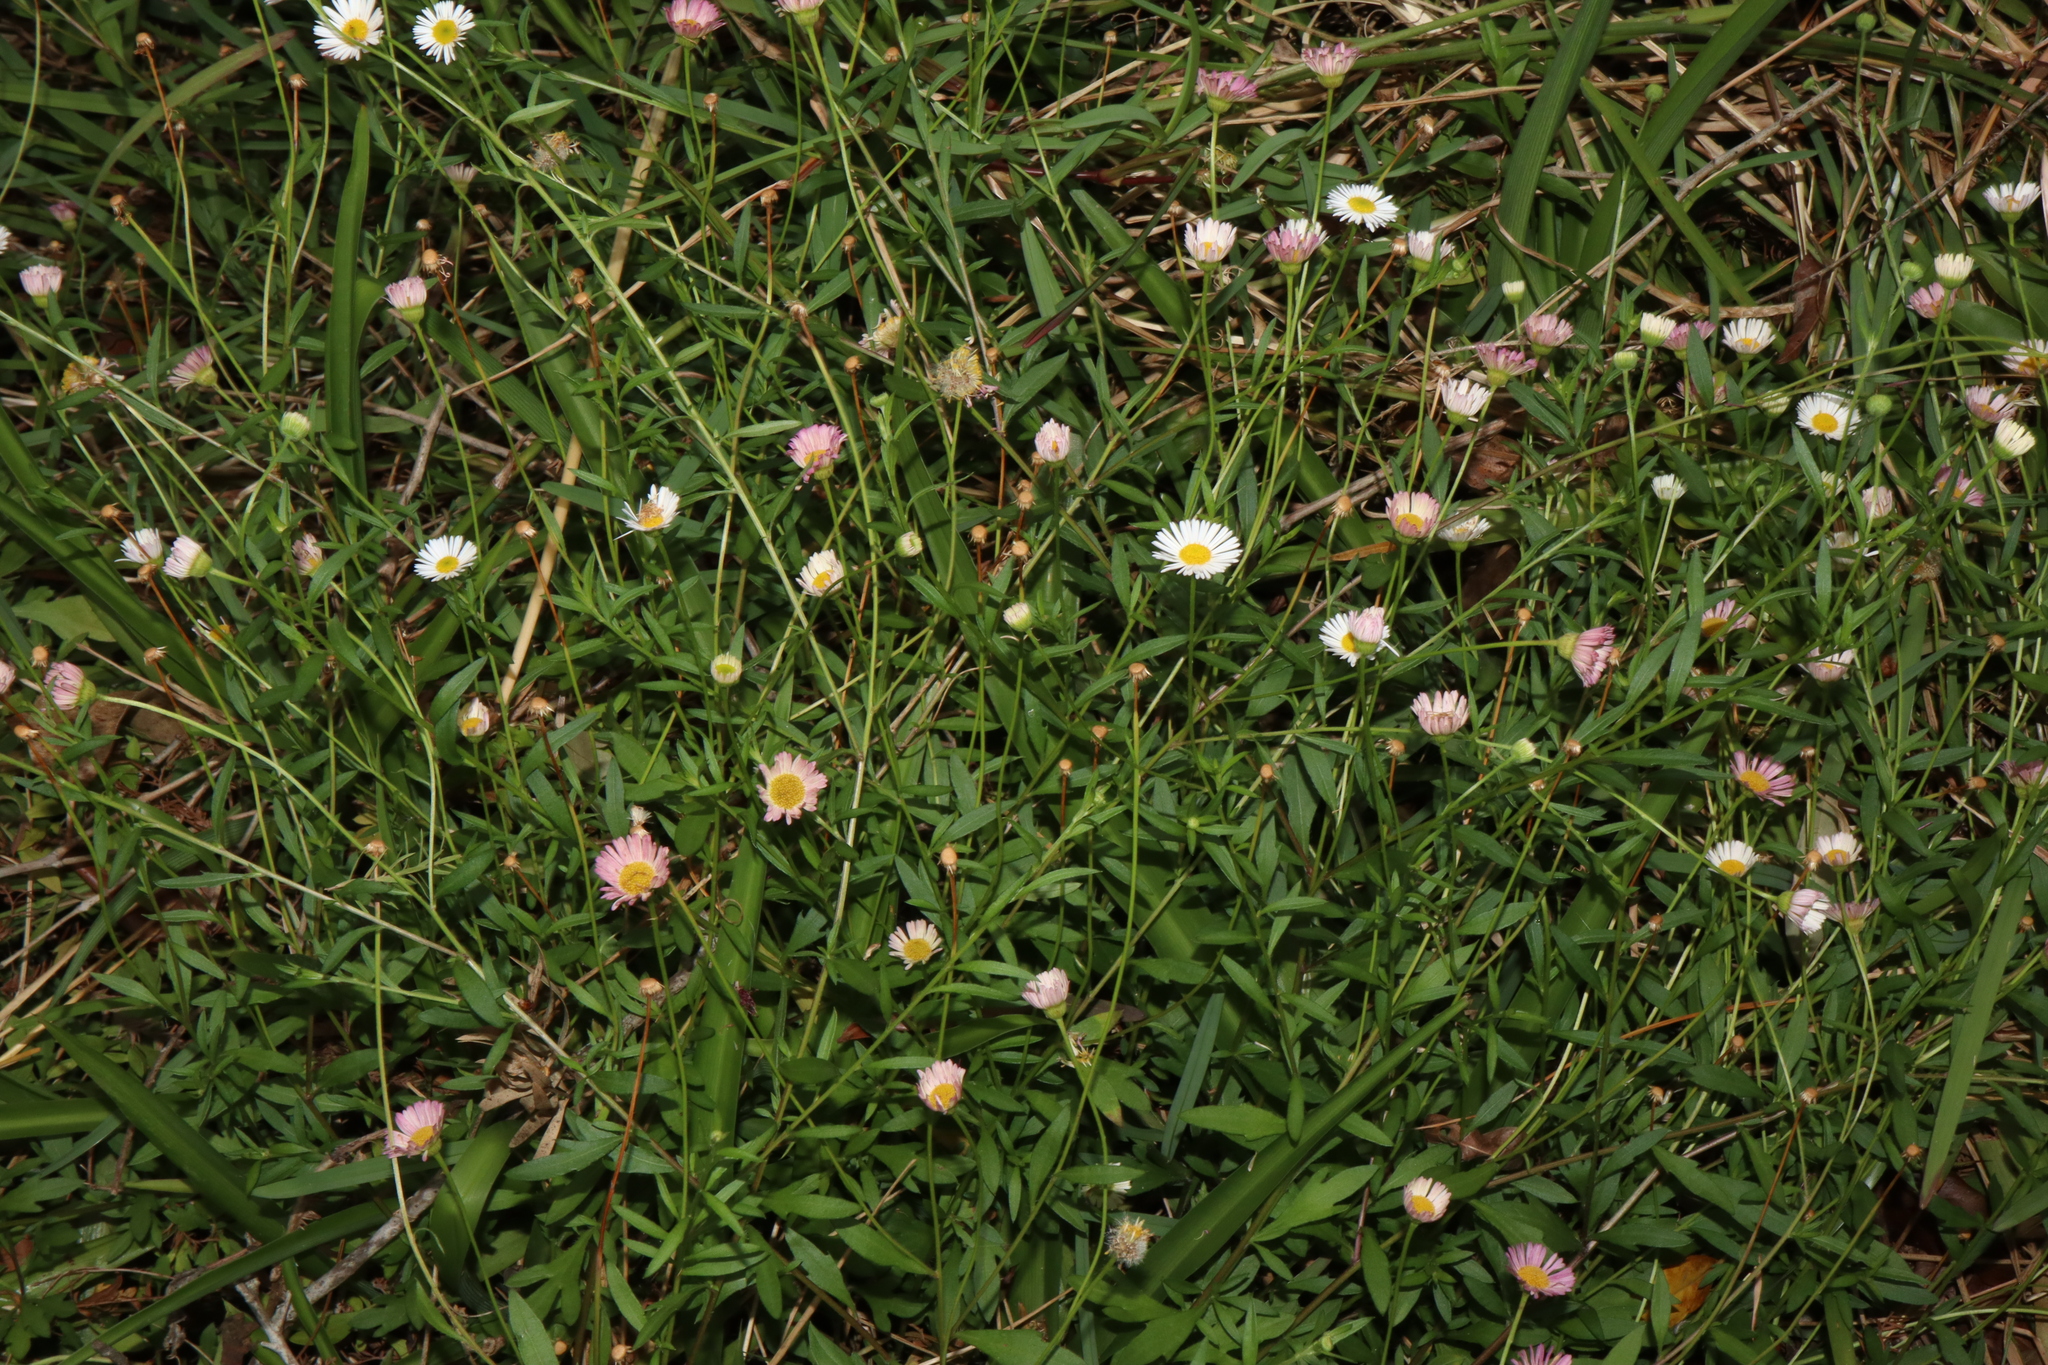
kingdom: Plantae
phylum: Tracheophyta
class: Magnoliopsida
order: Asterales
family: Asteraceae
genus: Erigeron
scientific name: Erigeron karvinskianus
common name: Mexican fleabane
